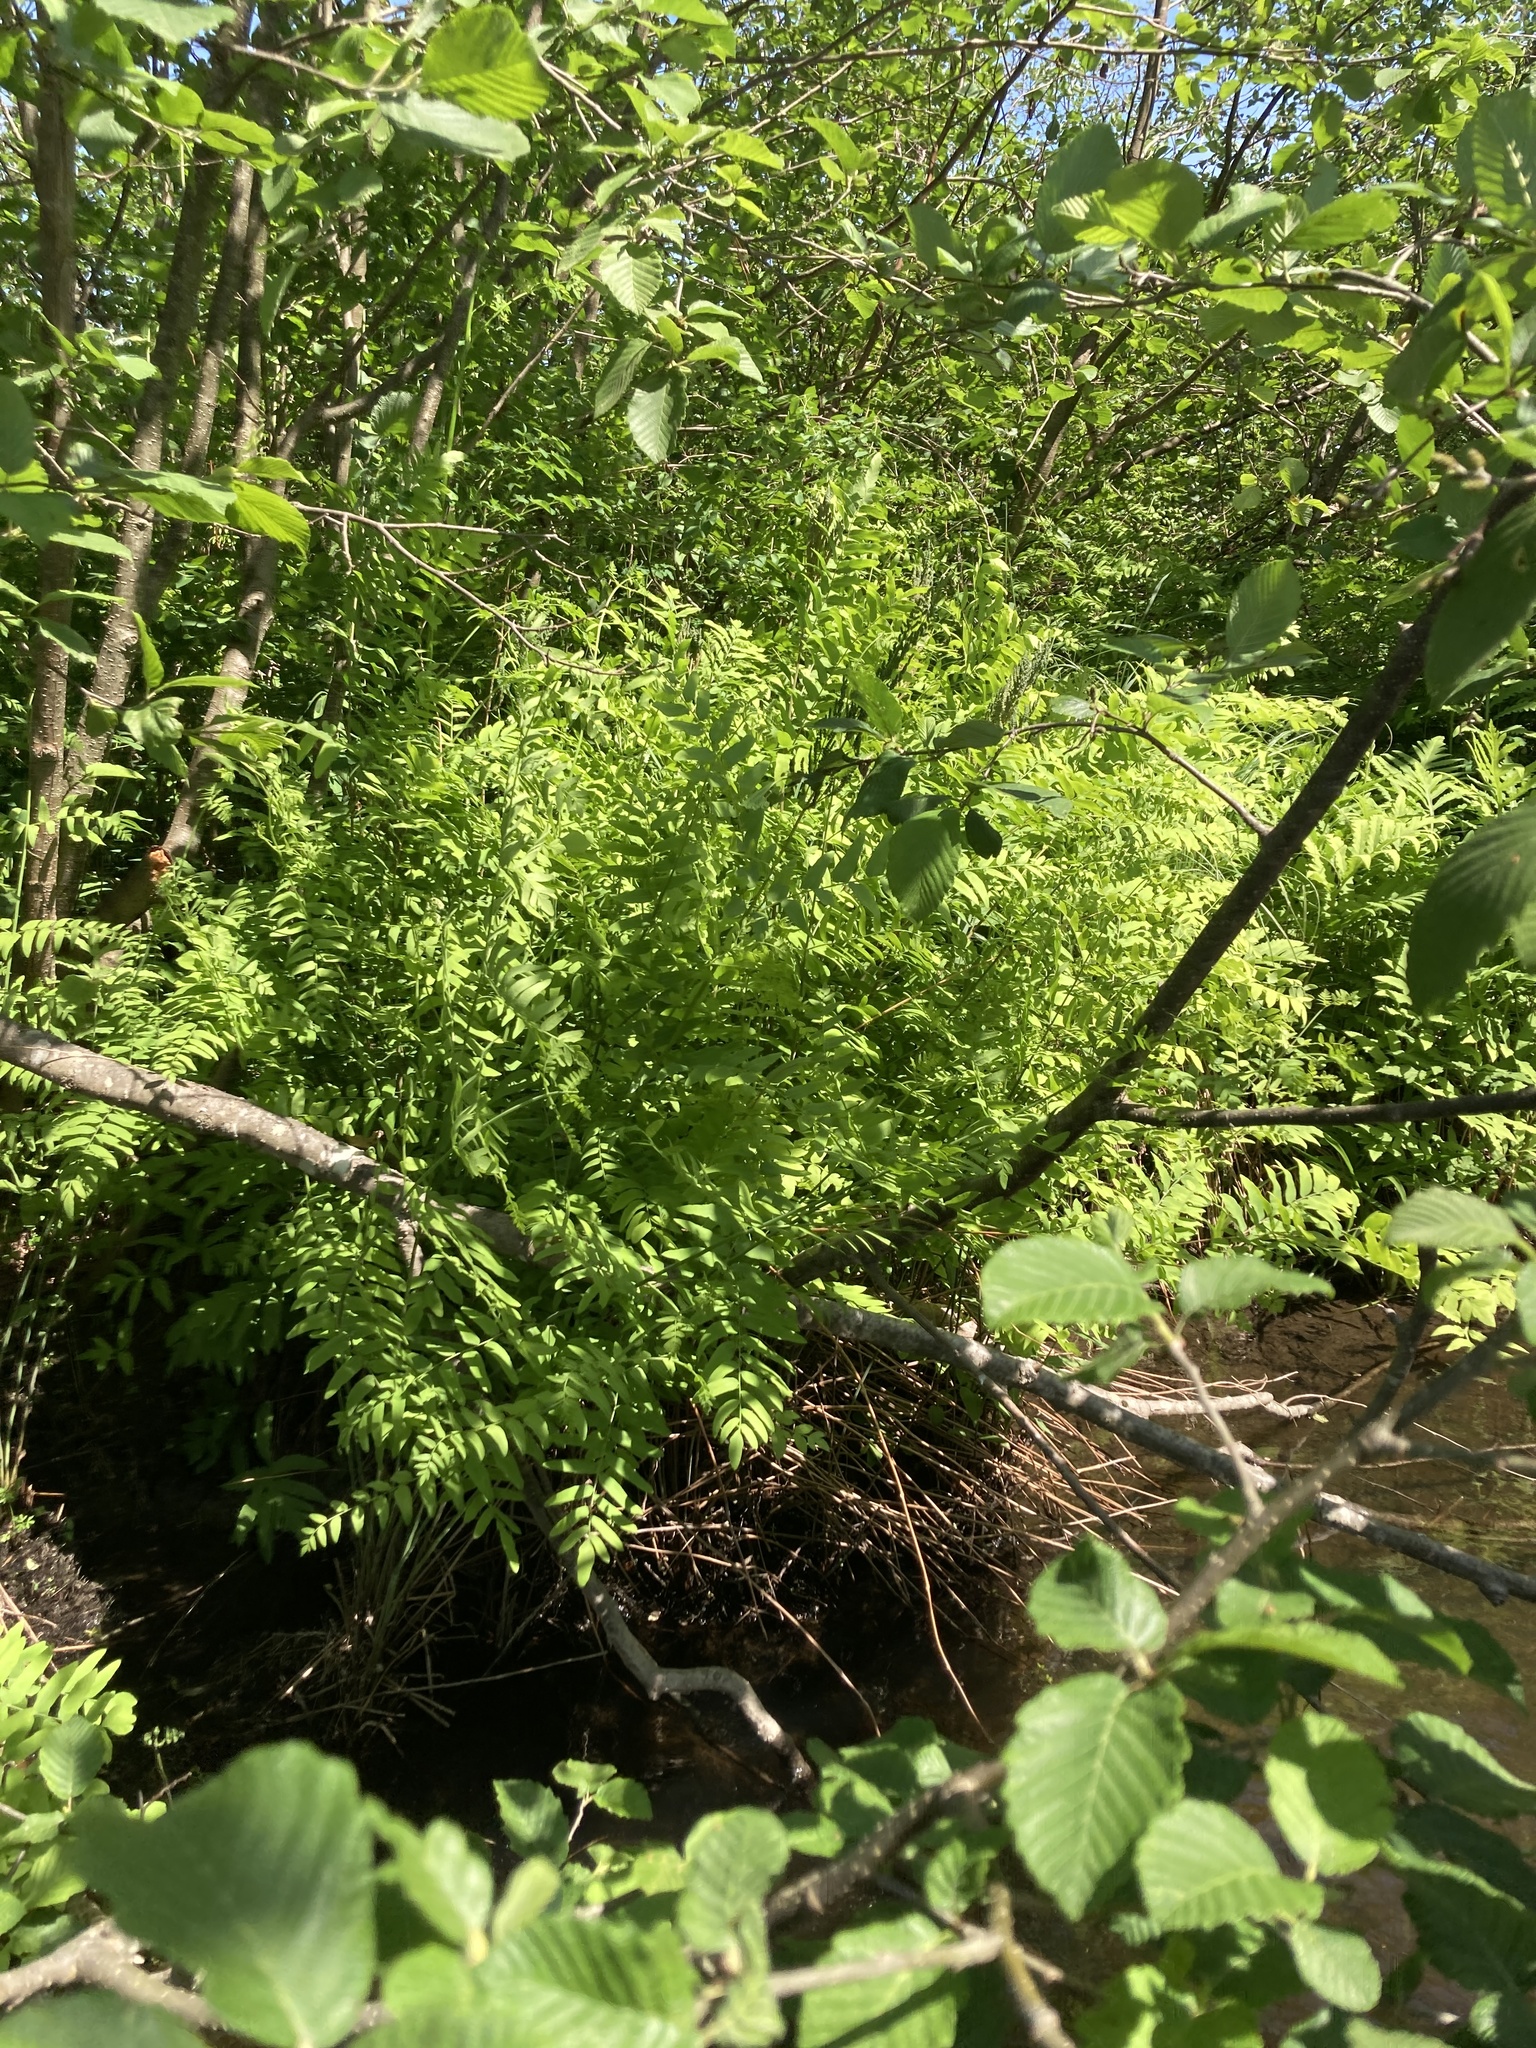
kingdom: Plantae
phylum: Tracheophyta
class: Polypodiopsida
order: Osmundales
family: Osmundaceae
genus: Osmunda
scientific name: Osmunda spectabilis
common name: American royal fern
